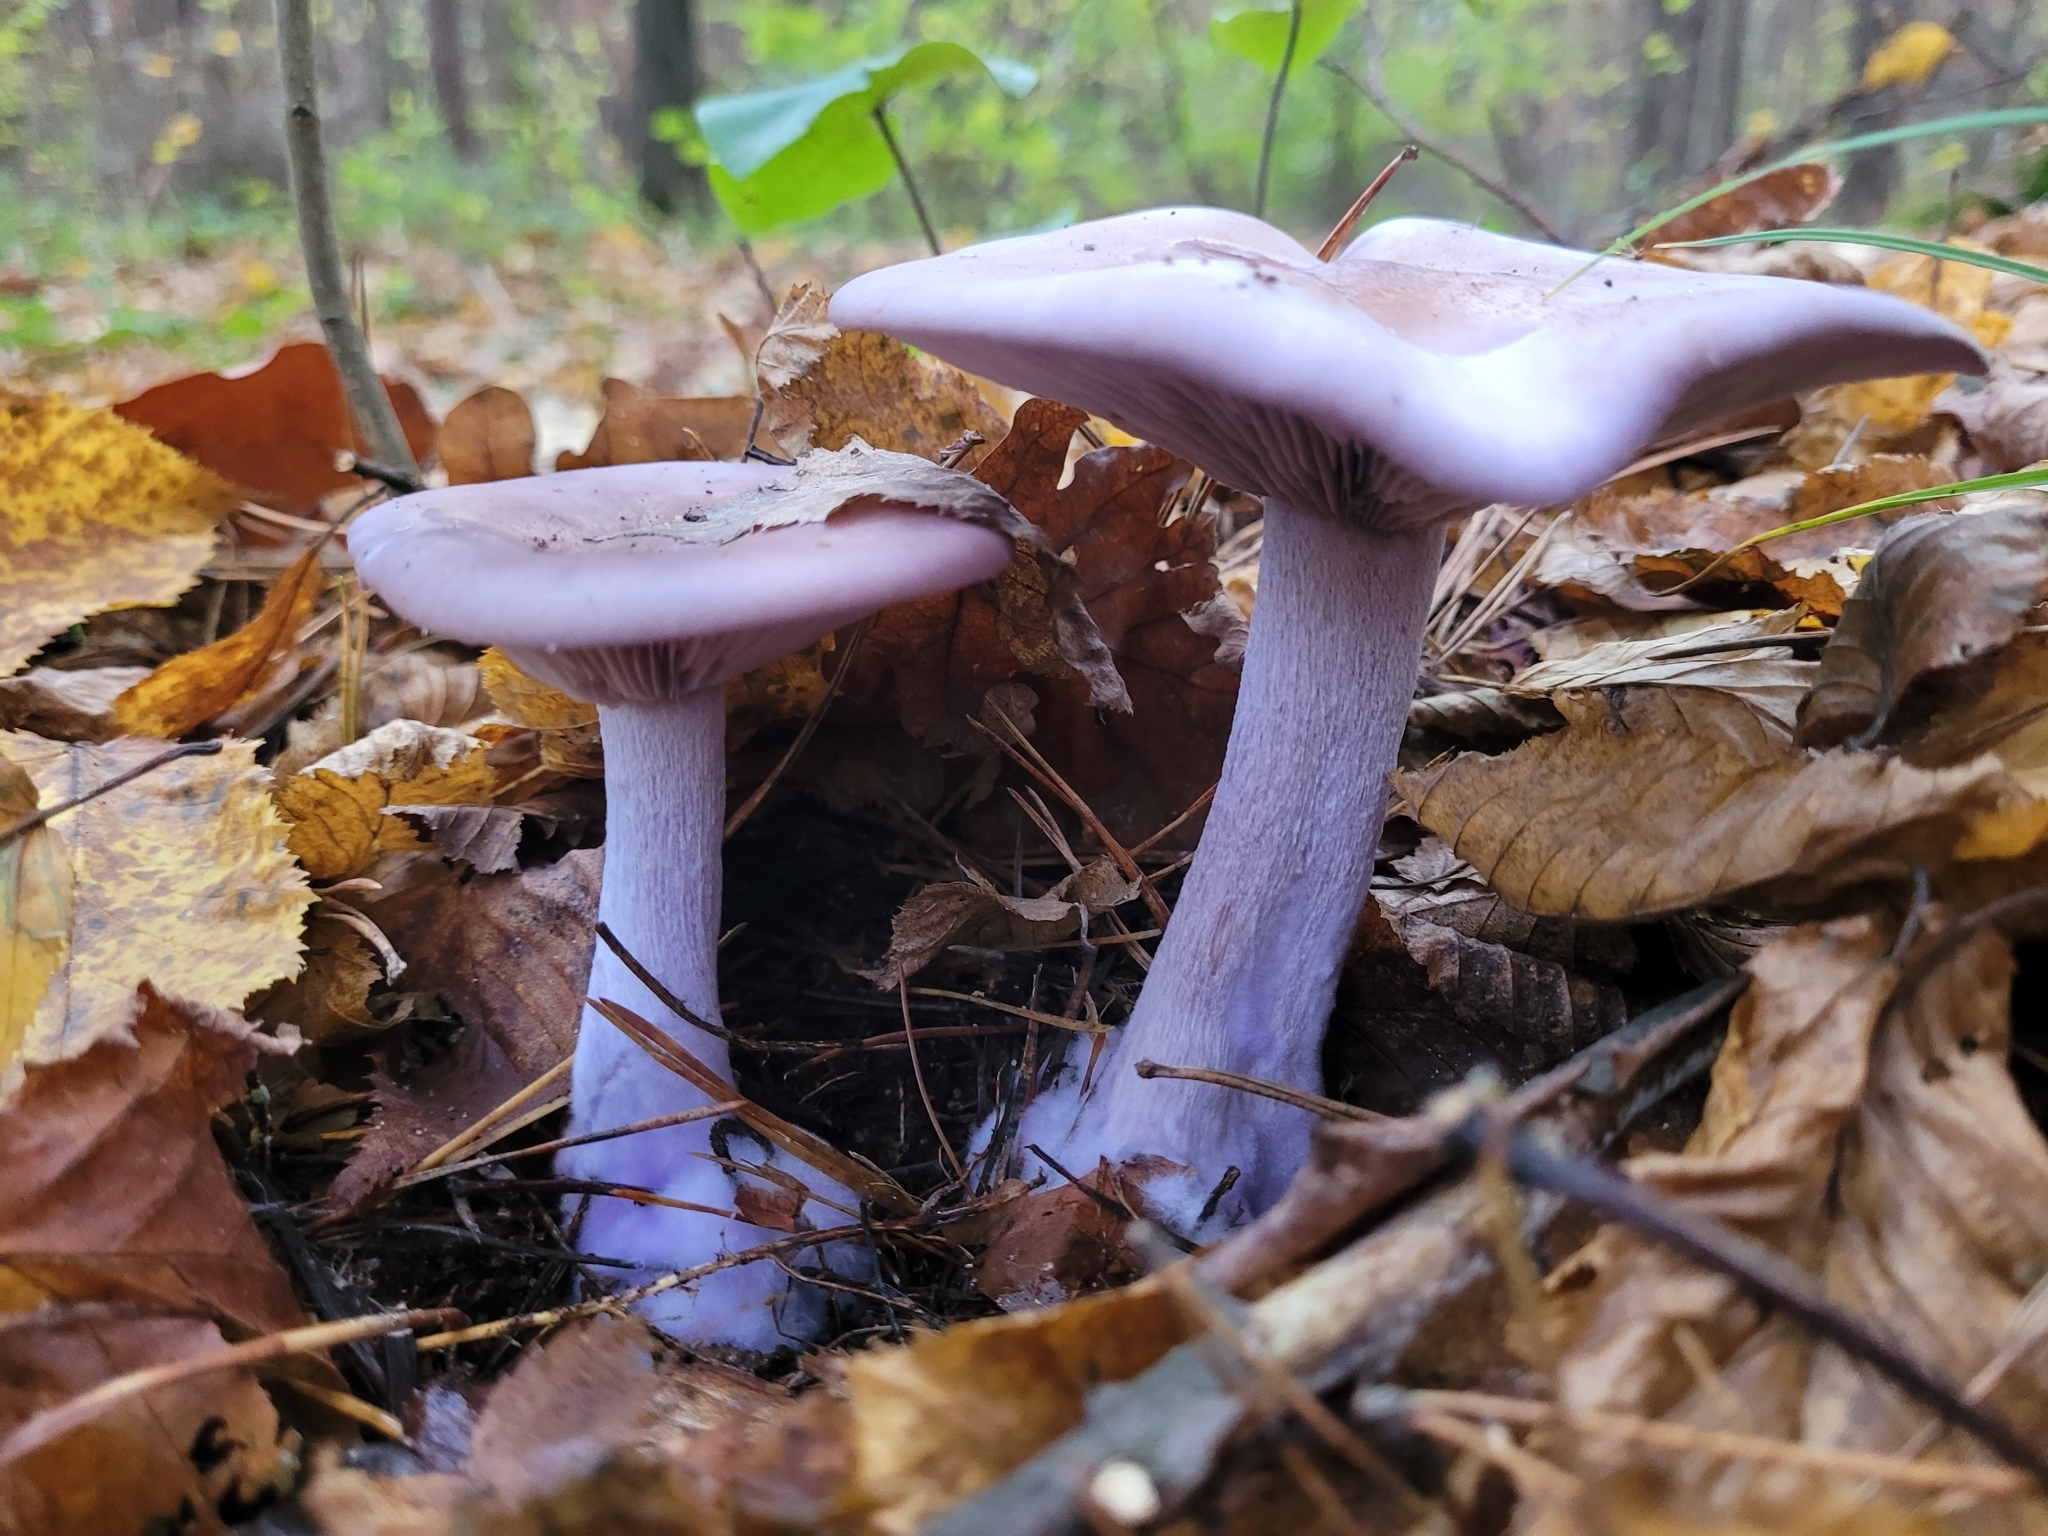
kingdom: Fungi
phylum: Basidiomycota
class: Agaricomycetes
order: Agaricales
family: Tricholomataceae
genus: Collybia
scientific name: Collybia
